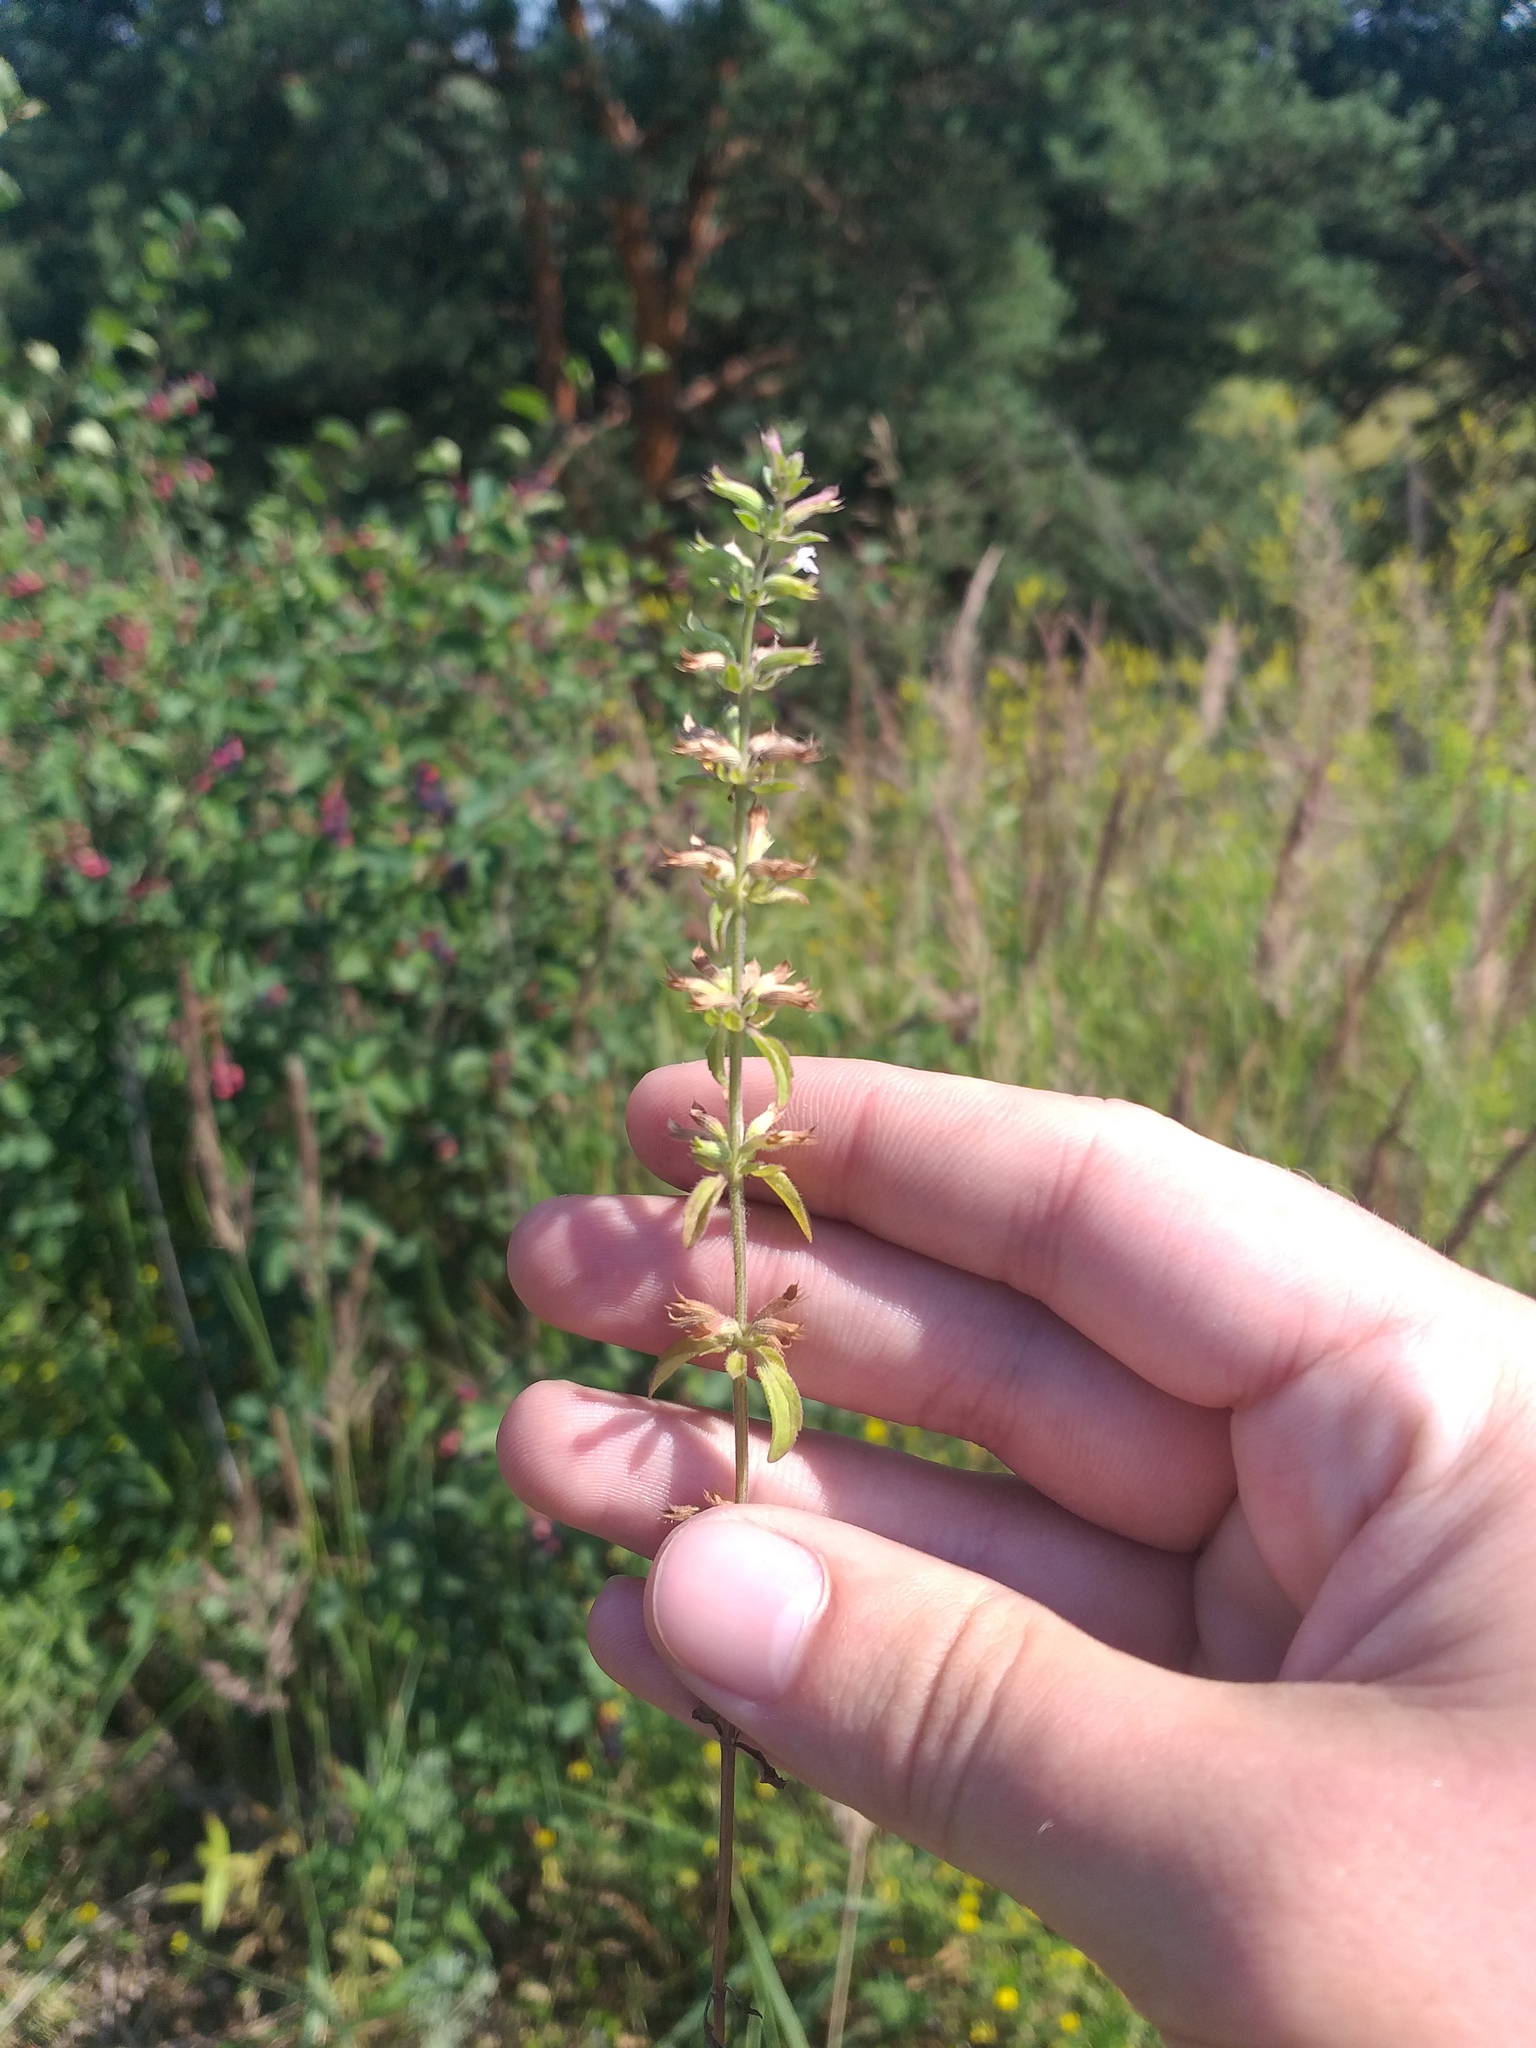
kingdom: Plantae
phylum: Tracheophyta
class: Magnoliopsida
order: Lamiales
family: Lamiaceae
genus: Dracocephalum
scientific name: Dracocephalum thymiflorum
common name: Thymeleaf dragonhead
